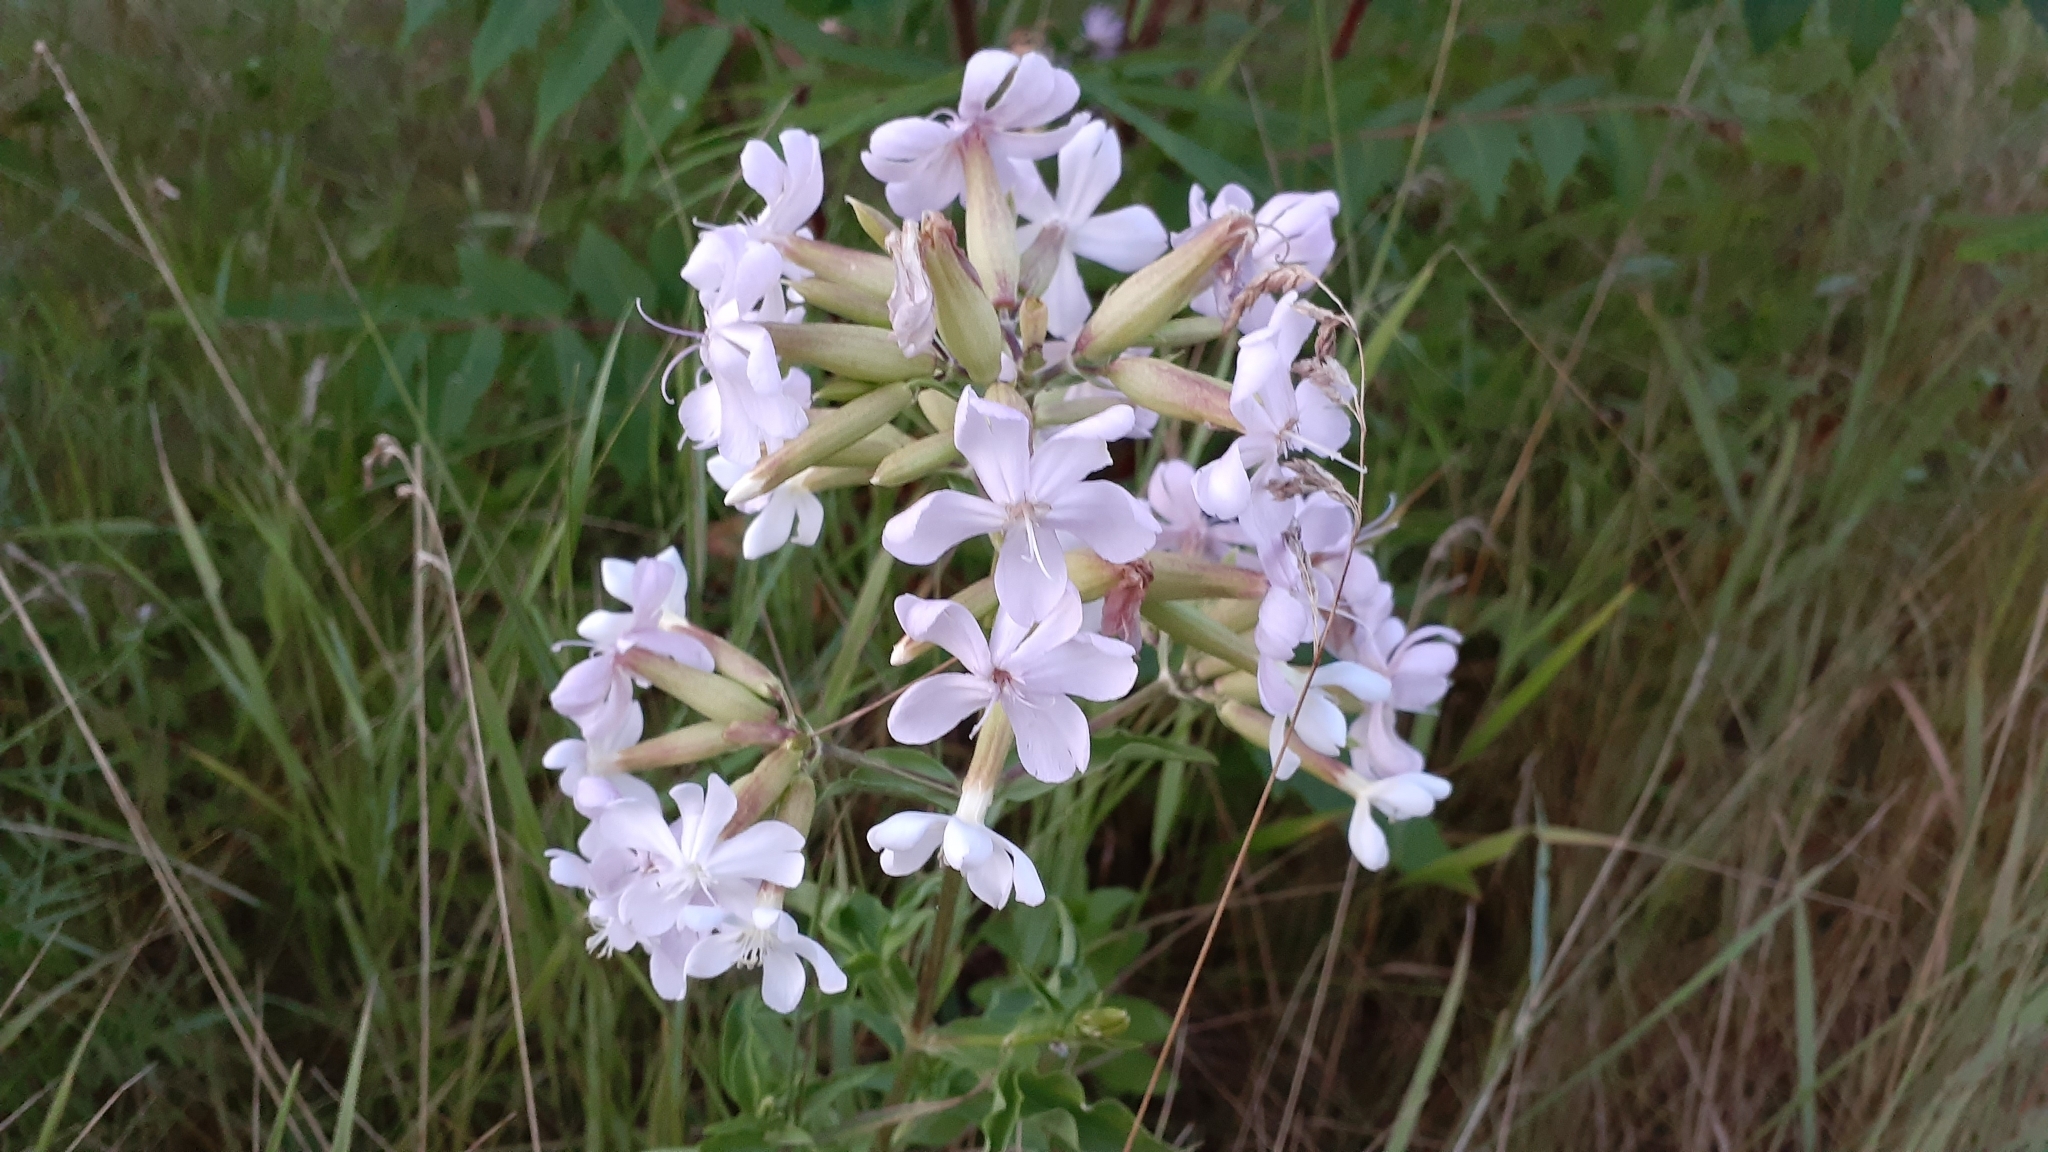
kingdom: Plantae
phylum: Tracheophyta
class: Magnoliopsida
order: Caryophyllales
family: Caryophyllaceae
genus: Saponaria
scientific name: Saponaria officinalis
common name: Soapwort
